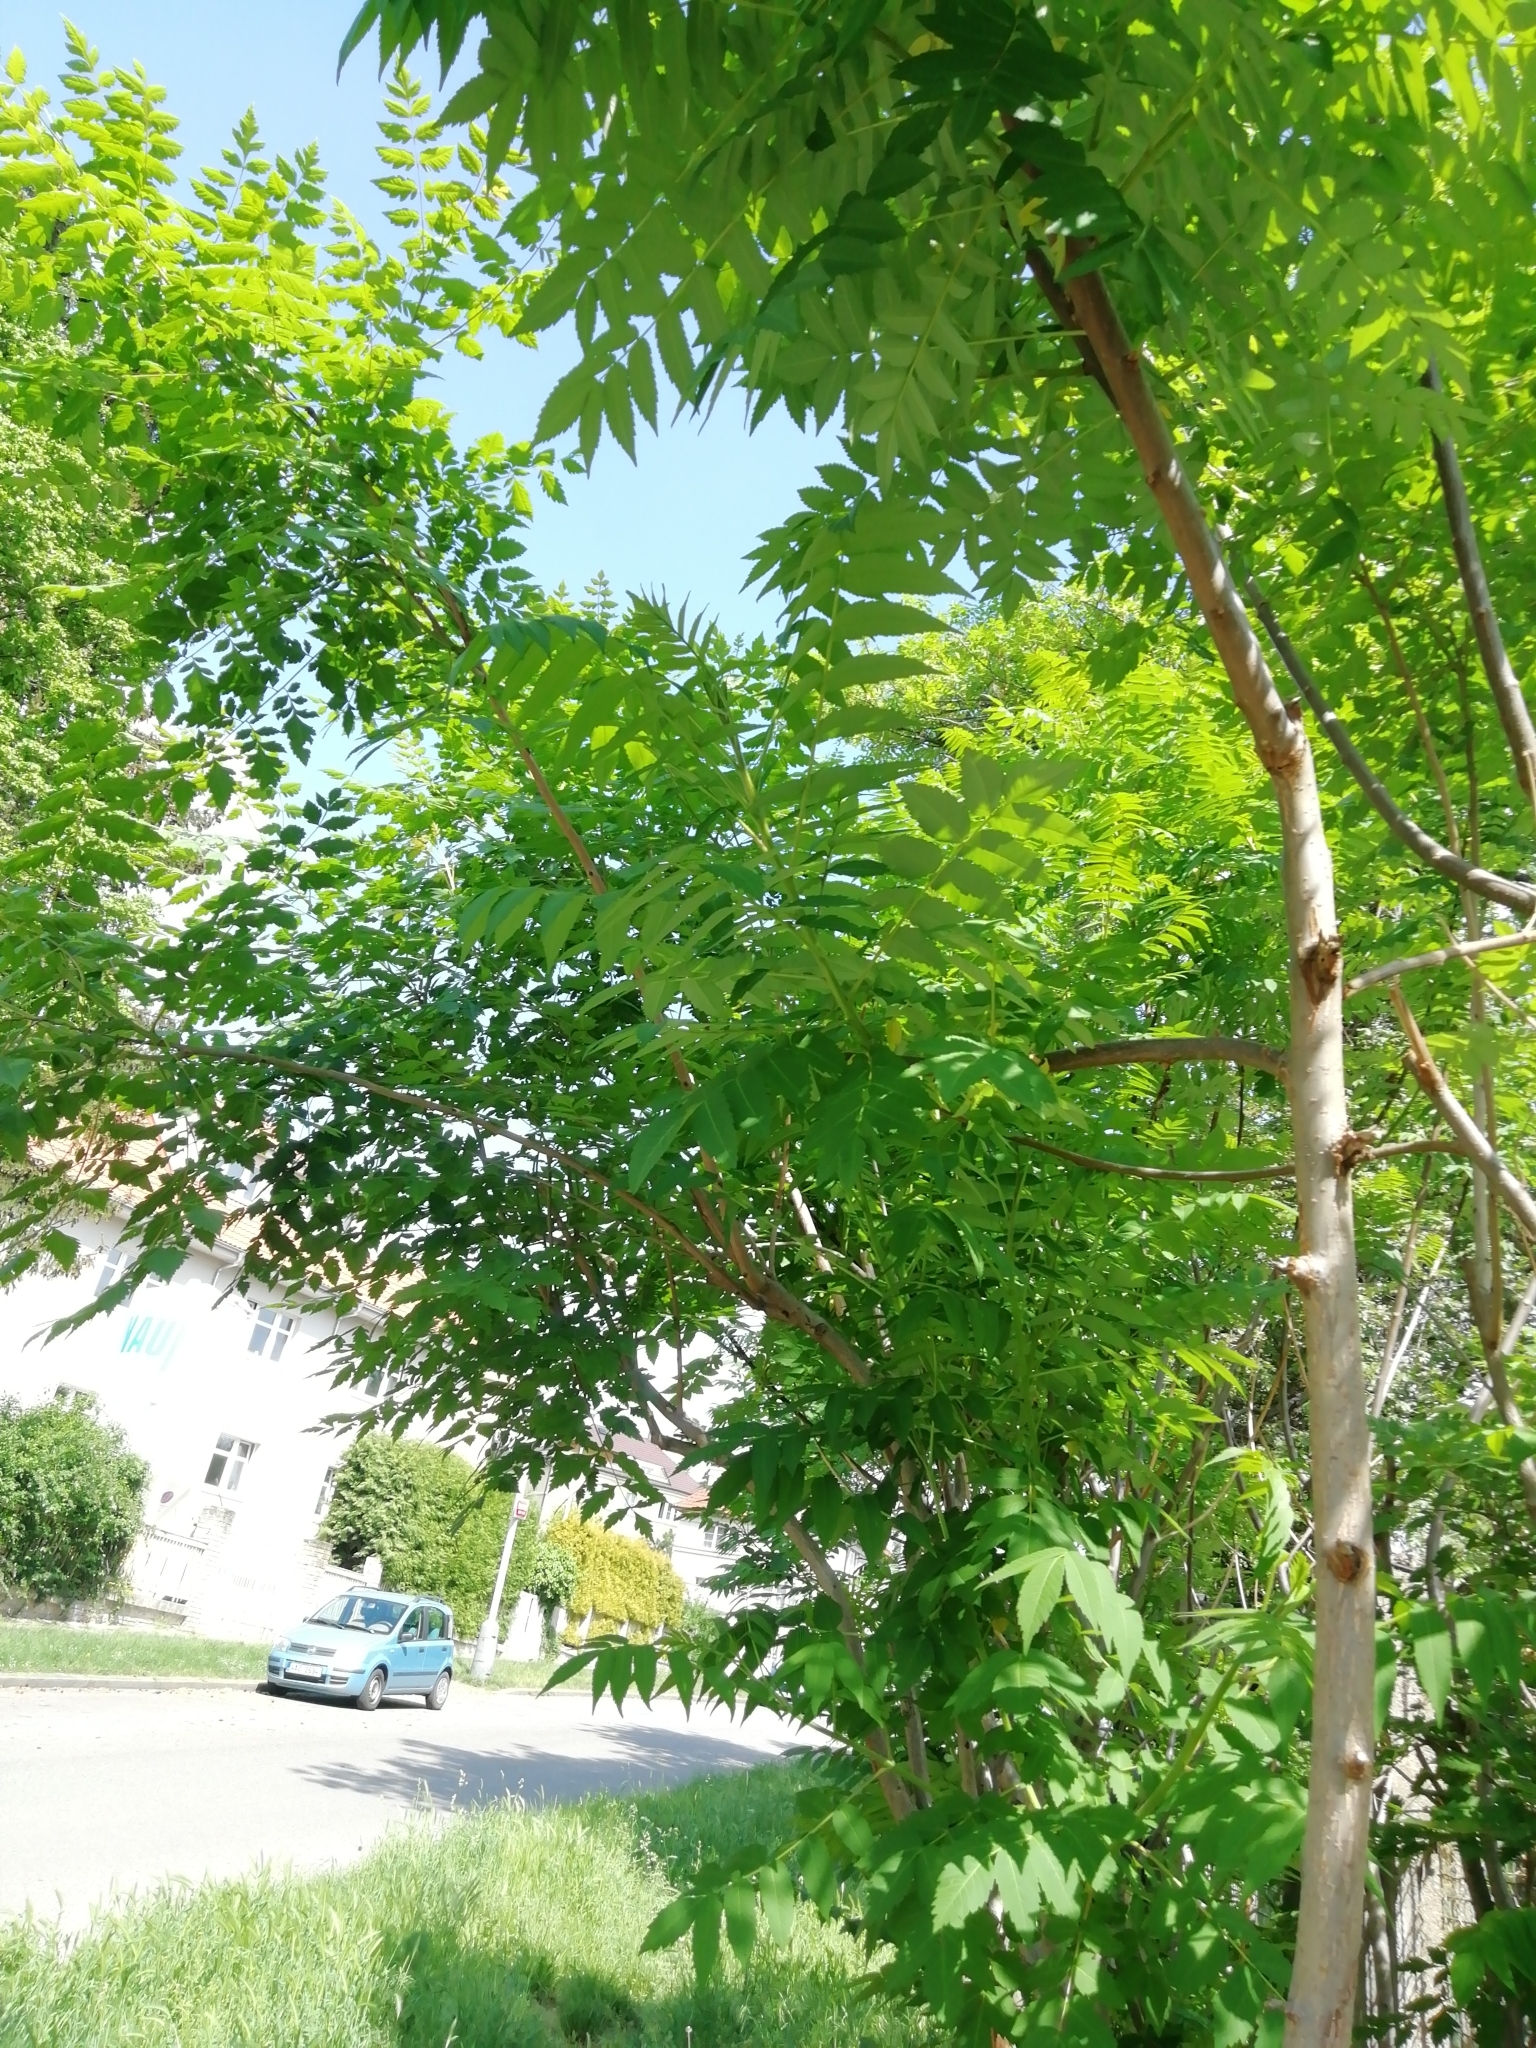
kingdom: Plantae
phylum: Tracheophyta
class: Magnoliopsida
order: Sapindales
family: Sapindaceae
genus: Koelreuteria
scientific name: Koelreuteria paniculata
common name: Pride-of-india
